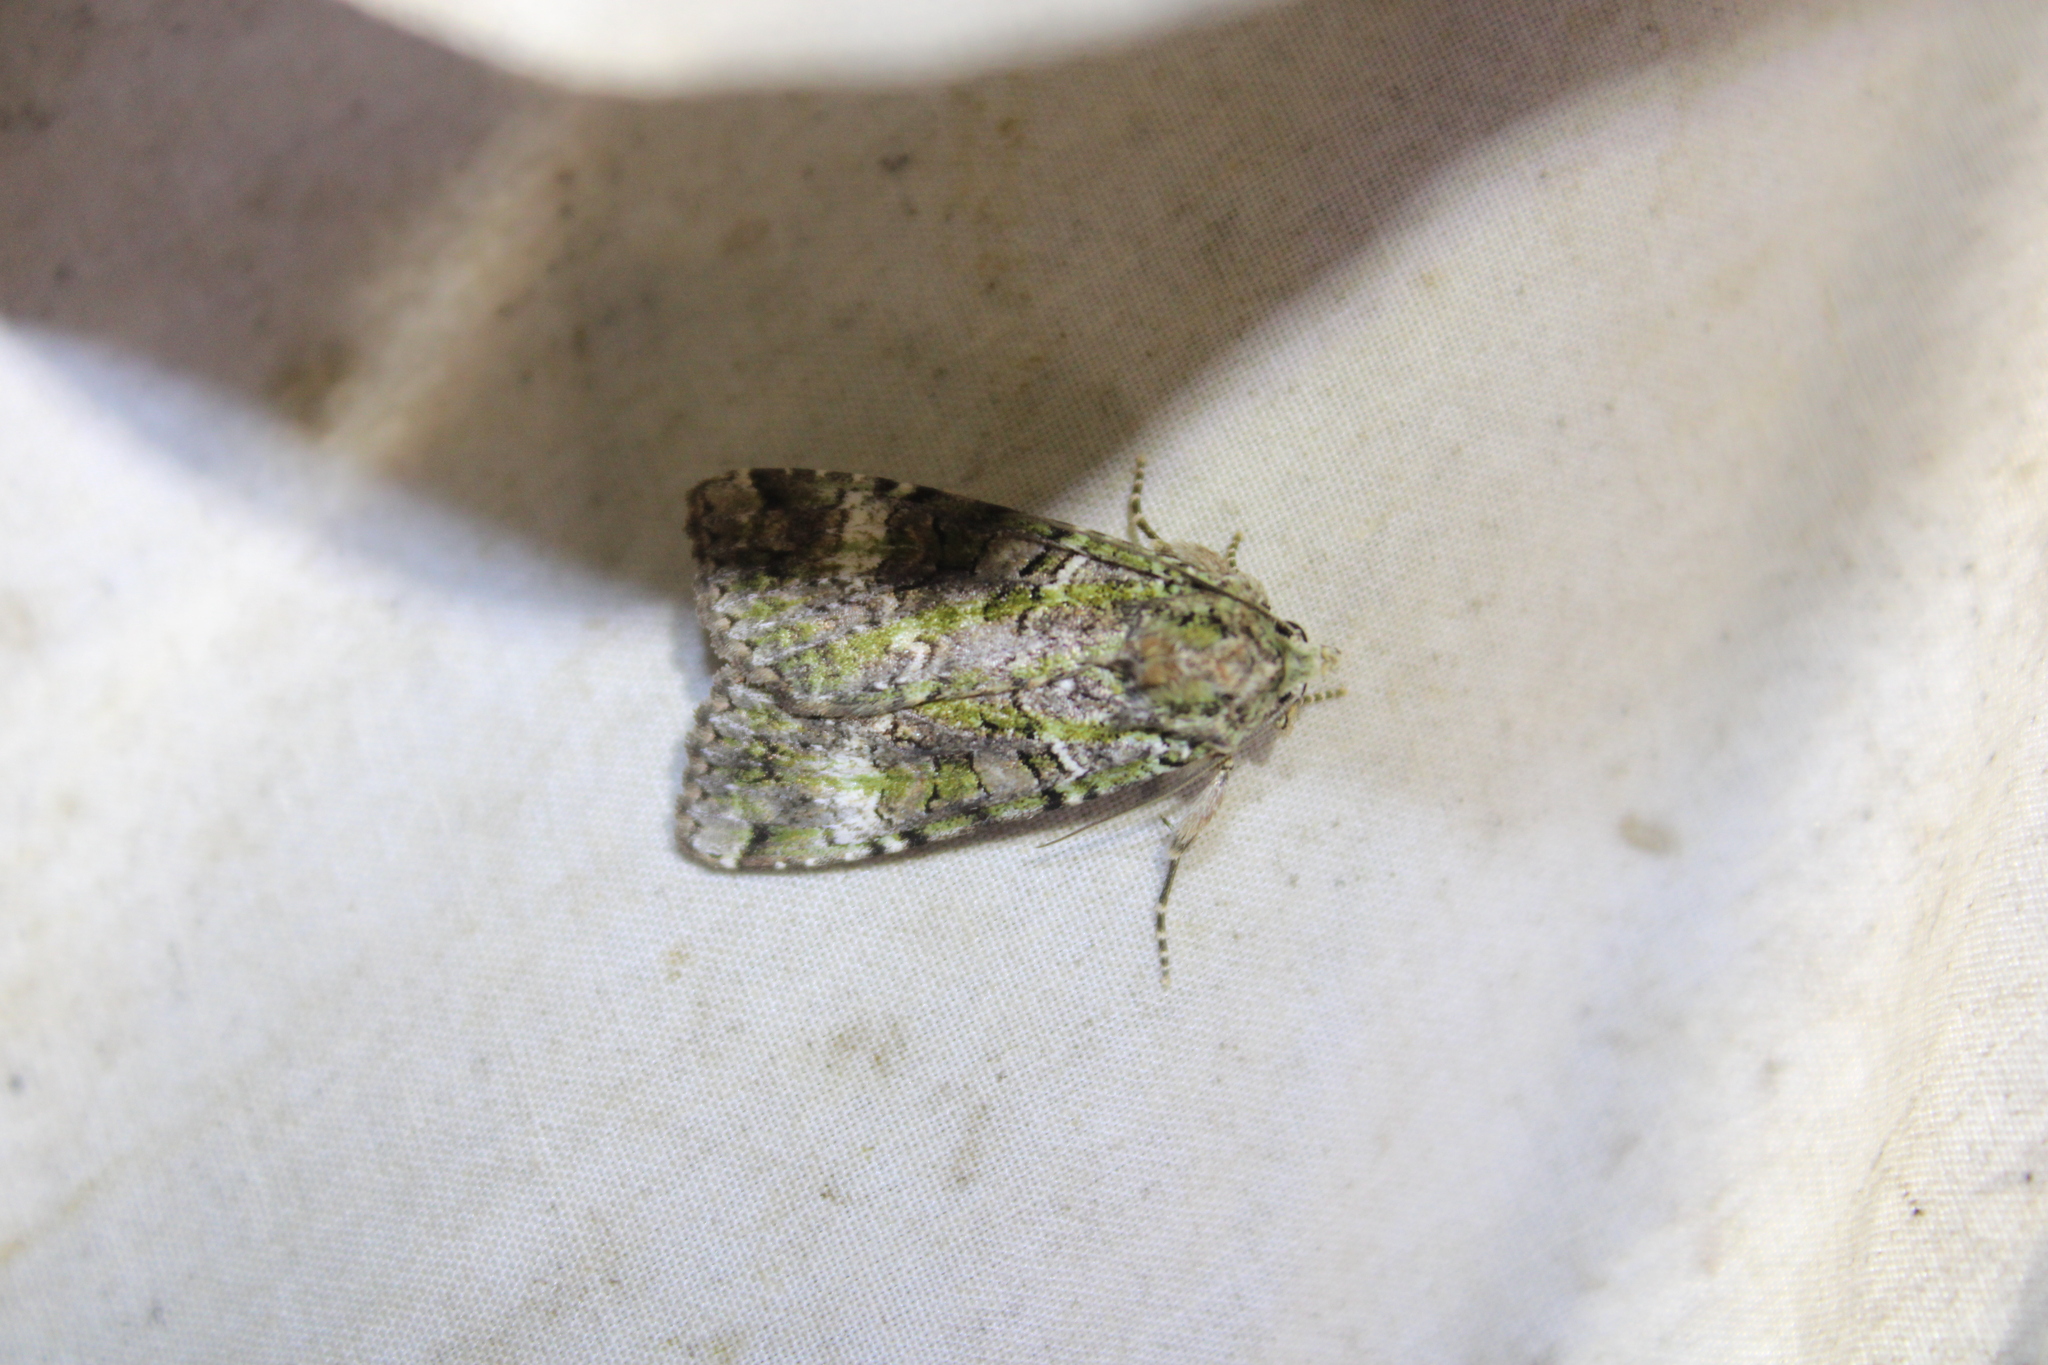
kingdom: Animalia
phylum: Arthropoda
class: Insecta
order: Lepidoptera
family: Noctuidae
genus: Anaplectoides
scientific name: Anaplectoides prasina
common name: Green arches
